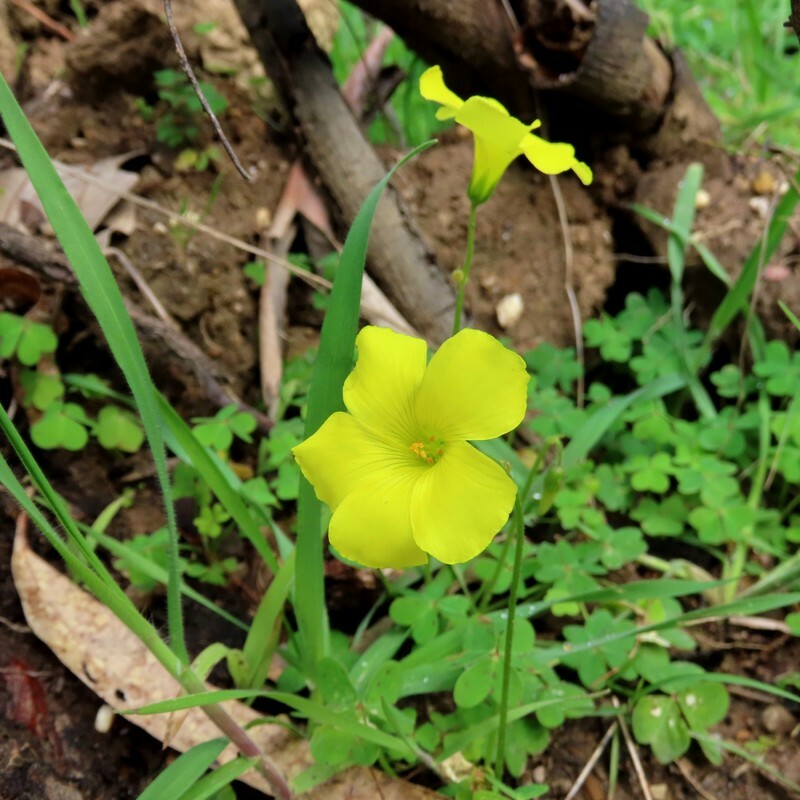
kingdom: Plantae
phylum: Tracheophyta
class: Magnoliopsida
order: Oxalidales
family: Oxalidaceae
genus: Oxalis
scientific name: Oxalis pes-caprae
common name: Bermuda-buttercup
